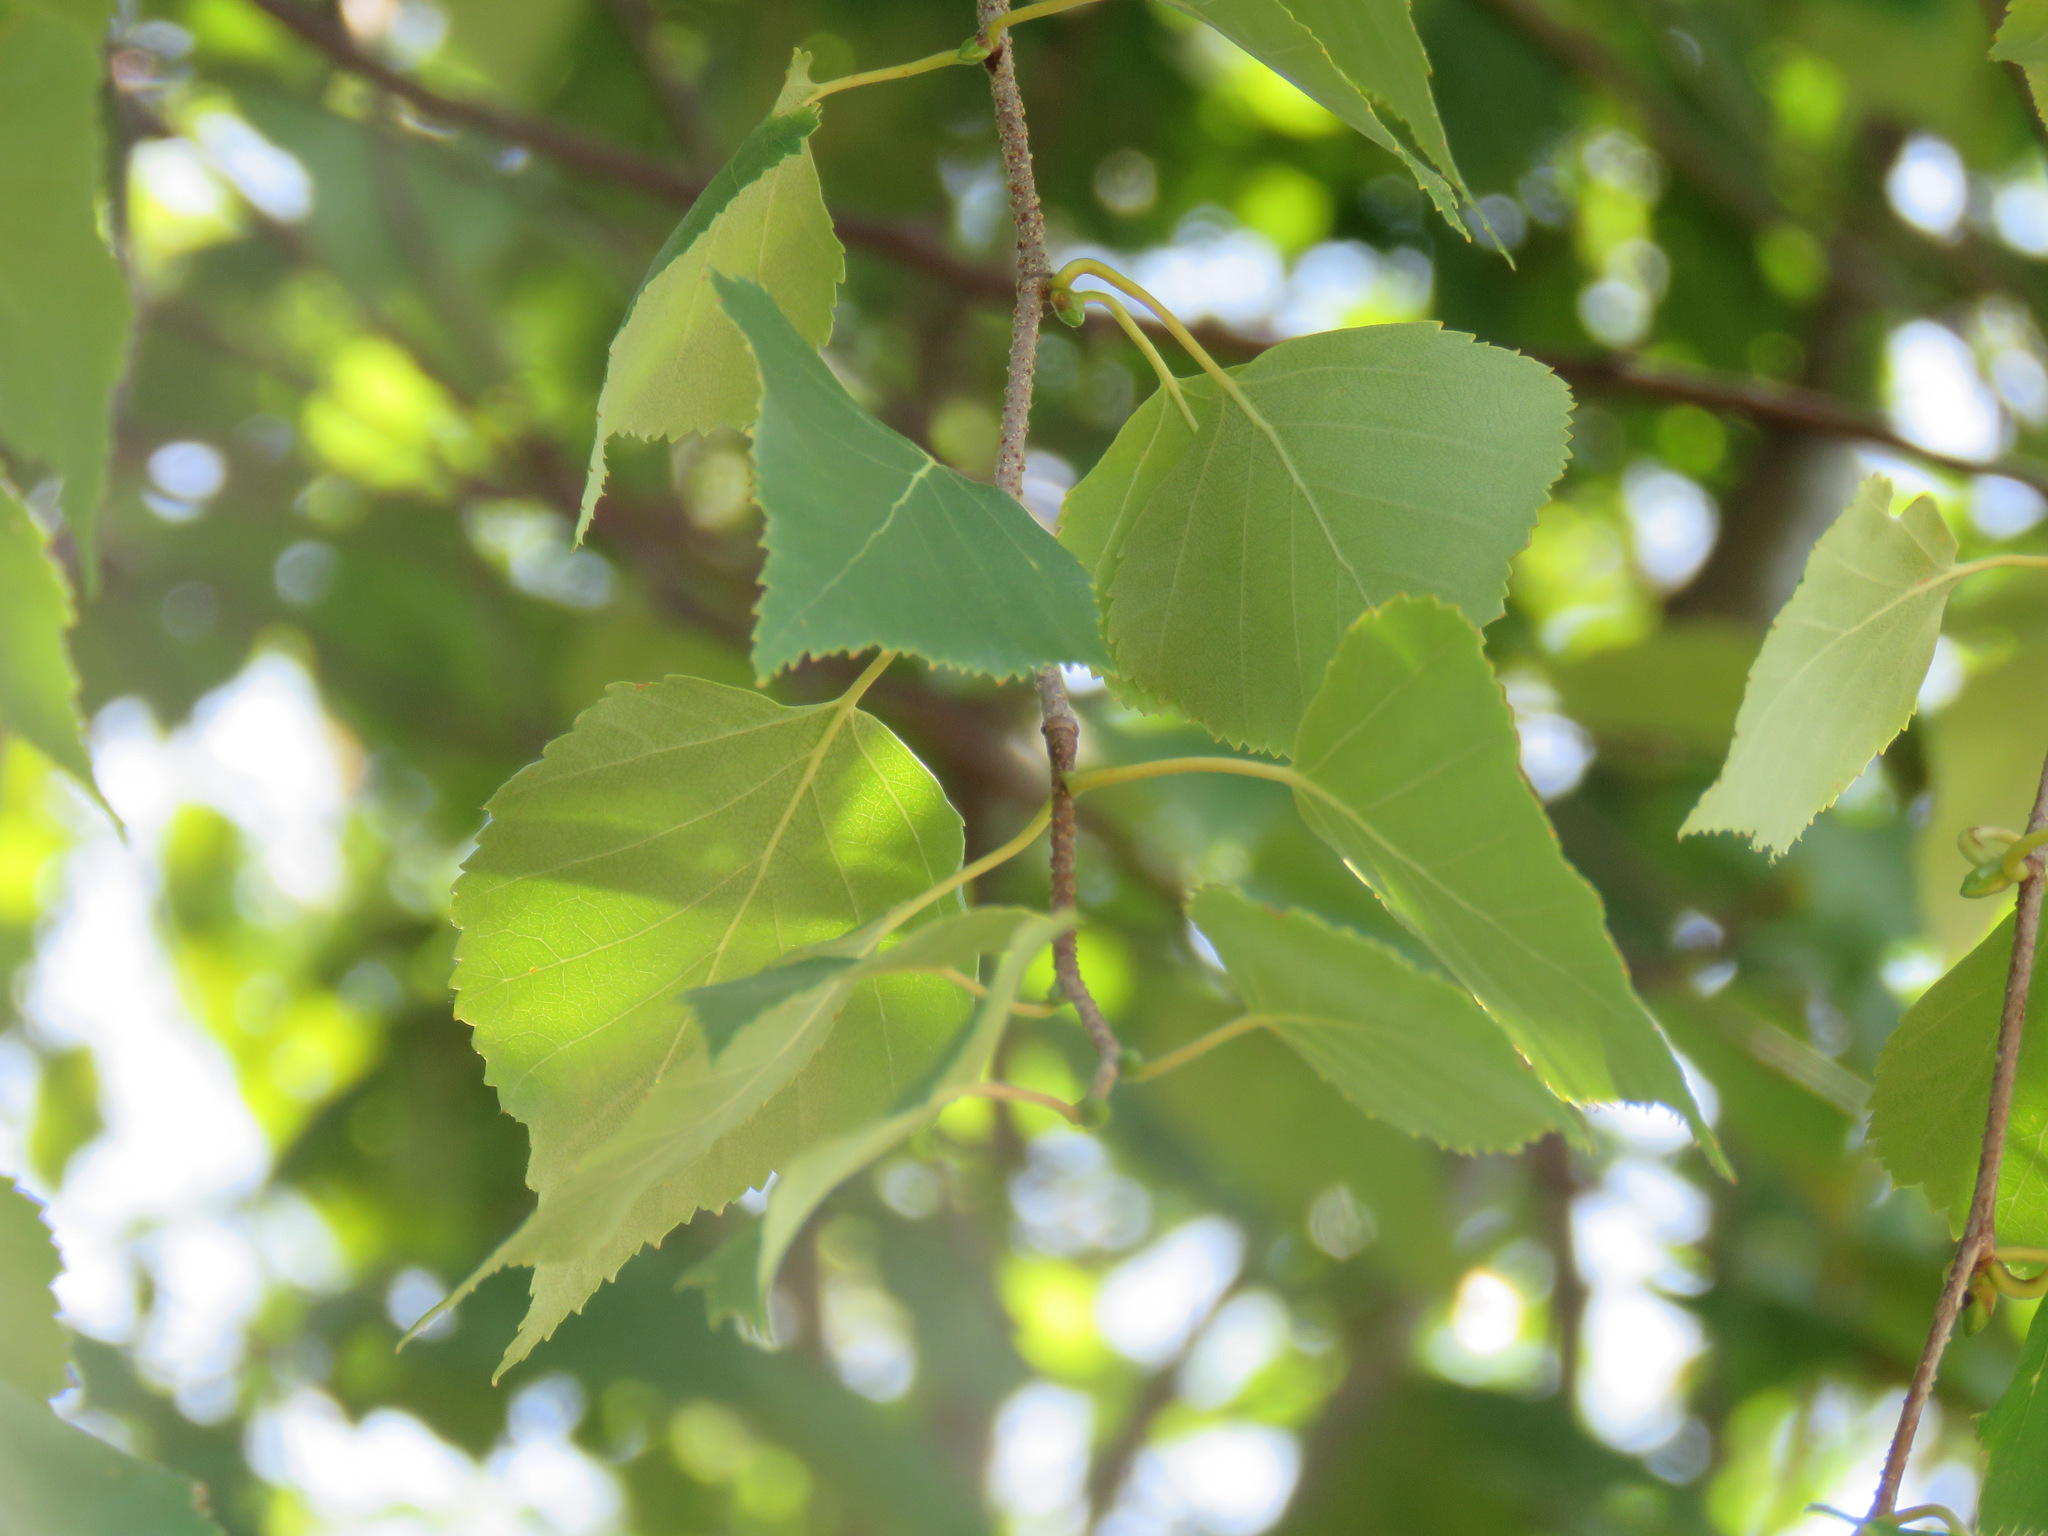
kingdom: Plantae
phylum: Tracheophyta
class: Magnoliopsida
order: Fagales
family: Betulaceae
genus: Betula
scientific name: Betula papyrifera
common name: Paper birch
